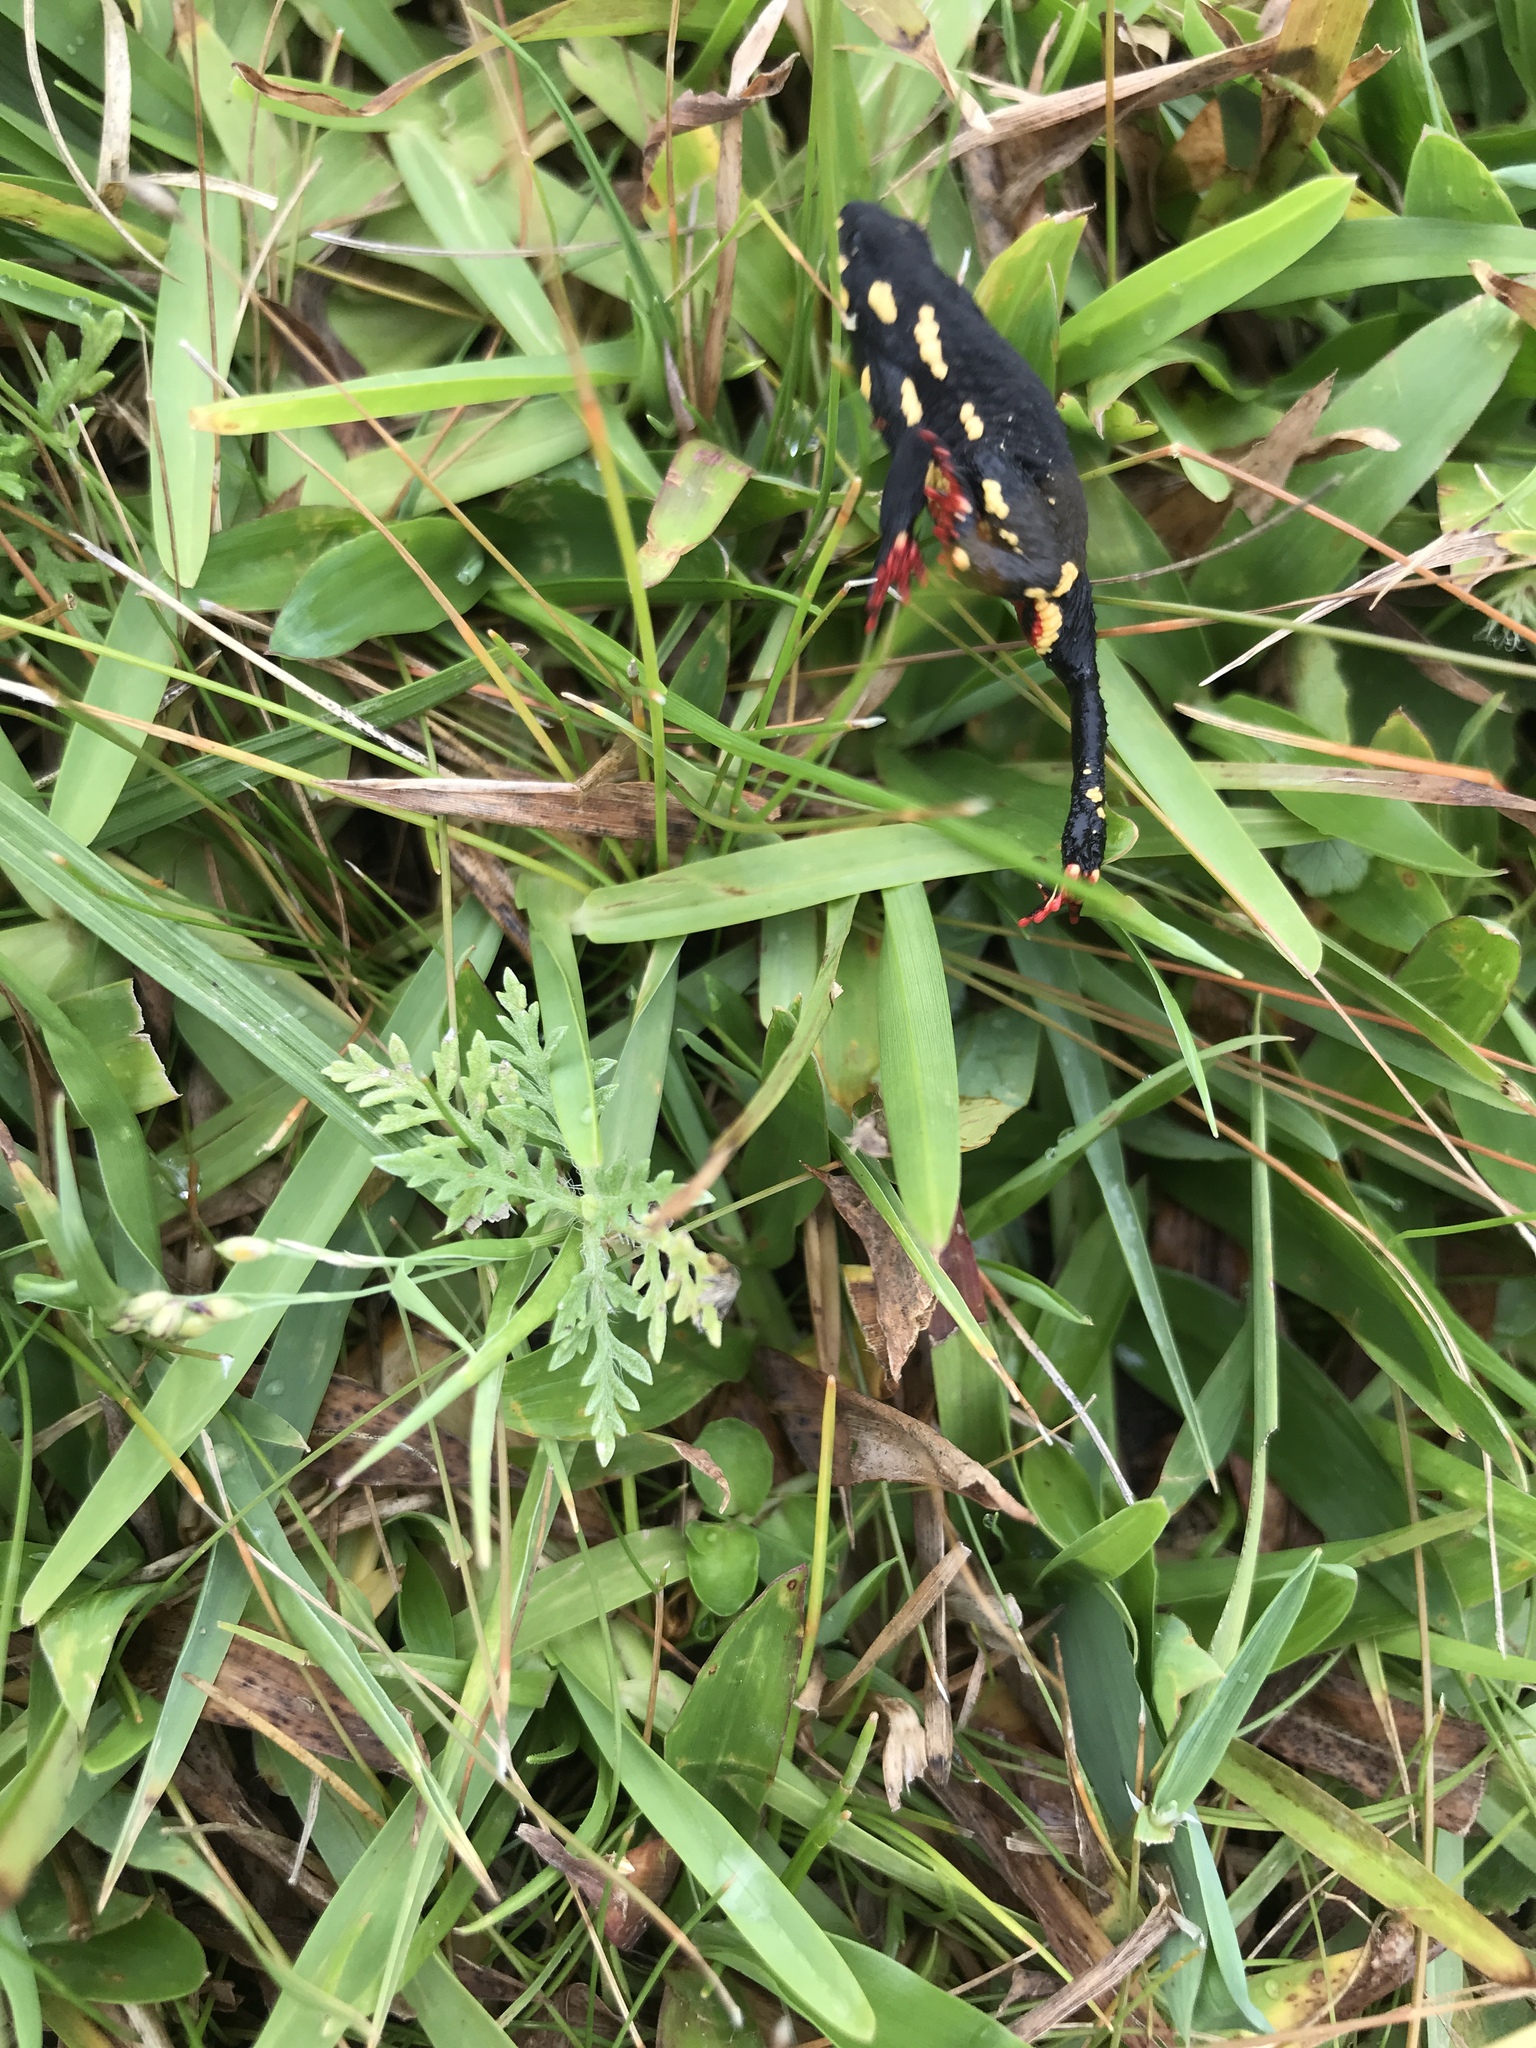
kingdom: Animalia
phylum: Chordata
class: Amphibia
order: Anura
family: Bufonidae
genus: Melanophryniscus
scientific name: Melanophryniscus montevidensis
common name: Montevideo redbelly toad
